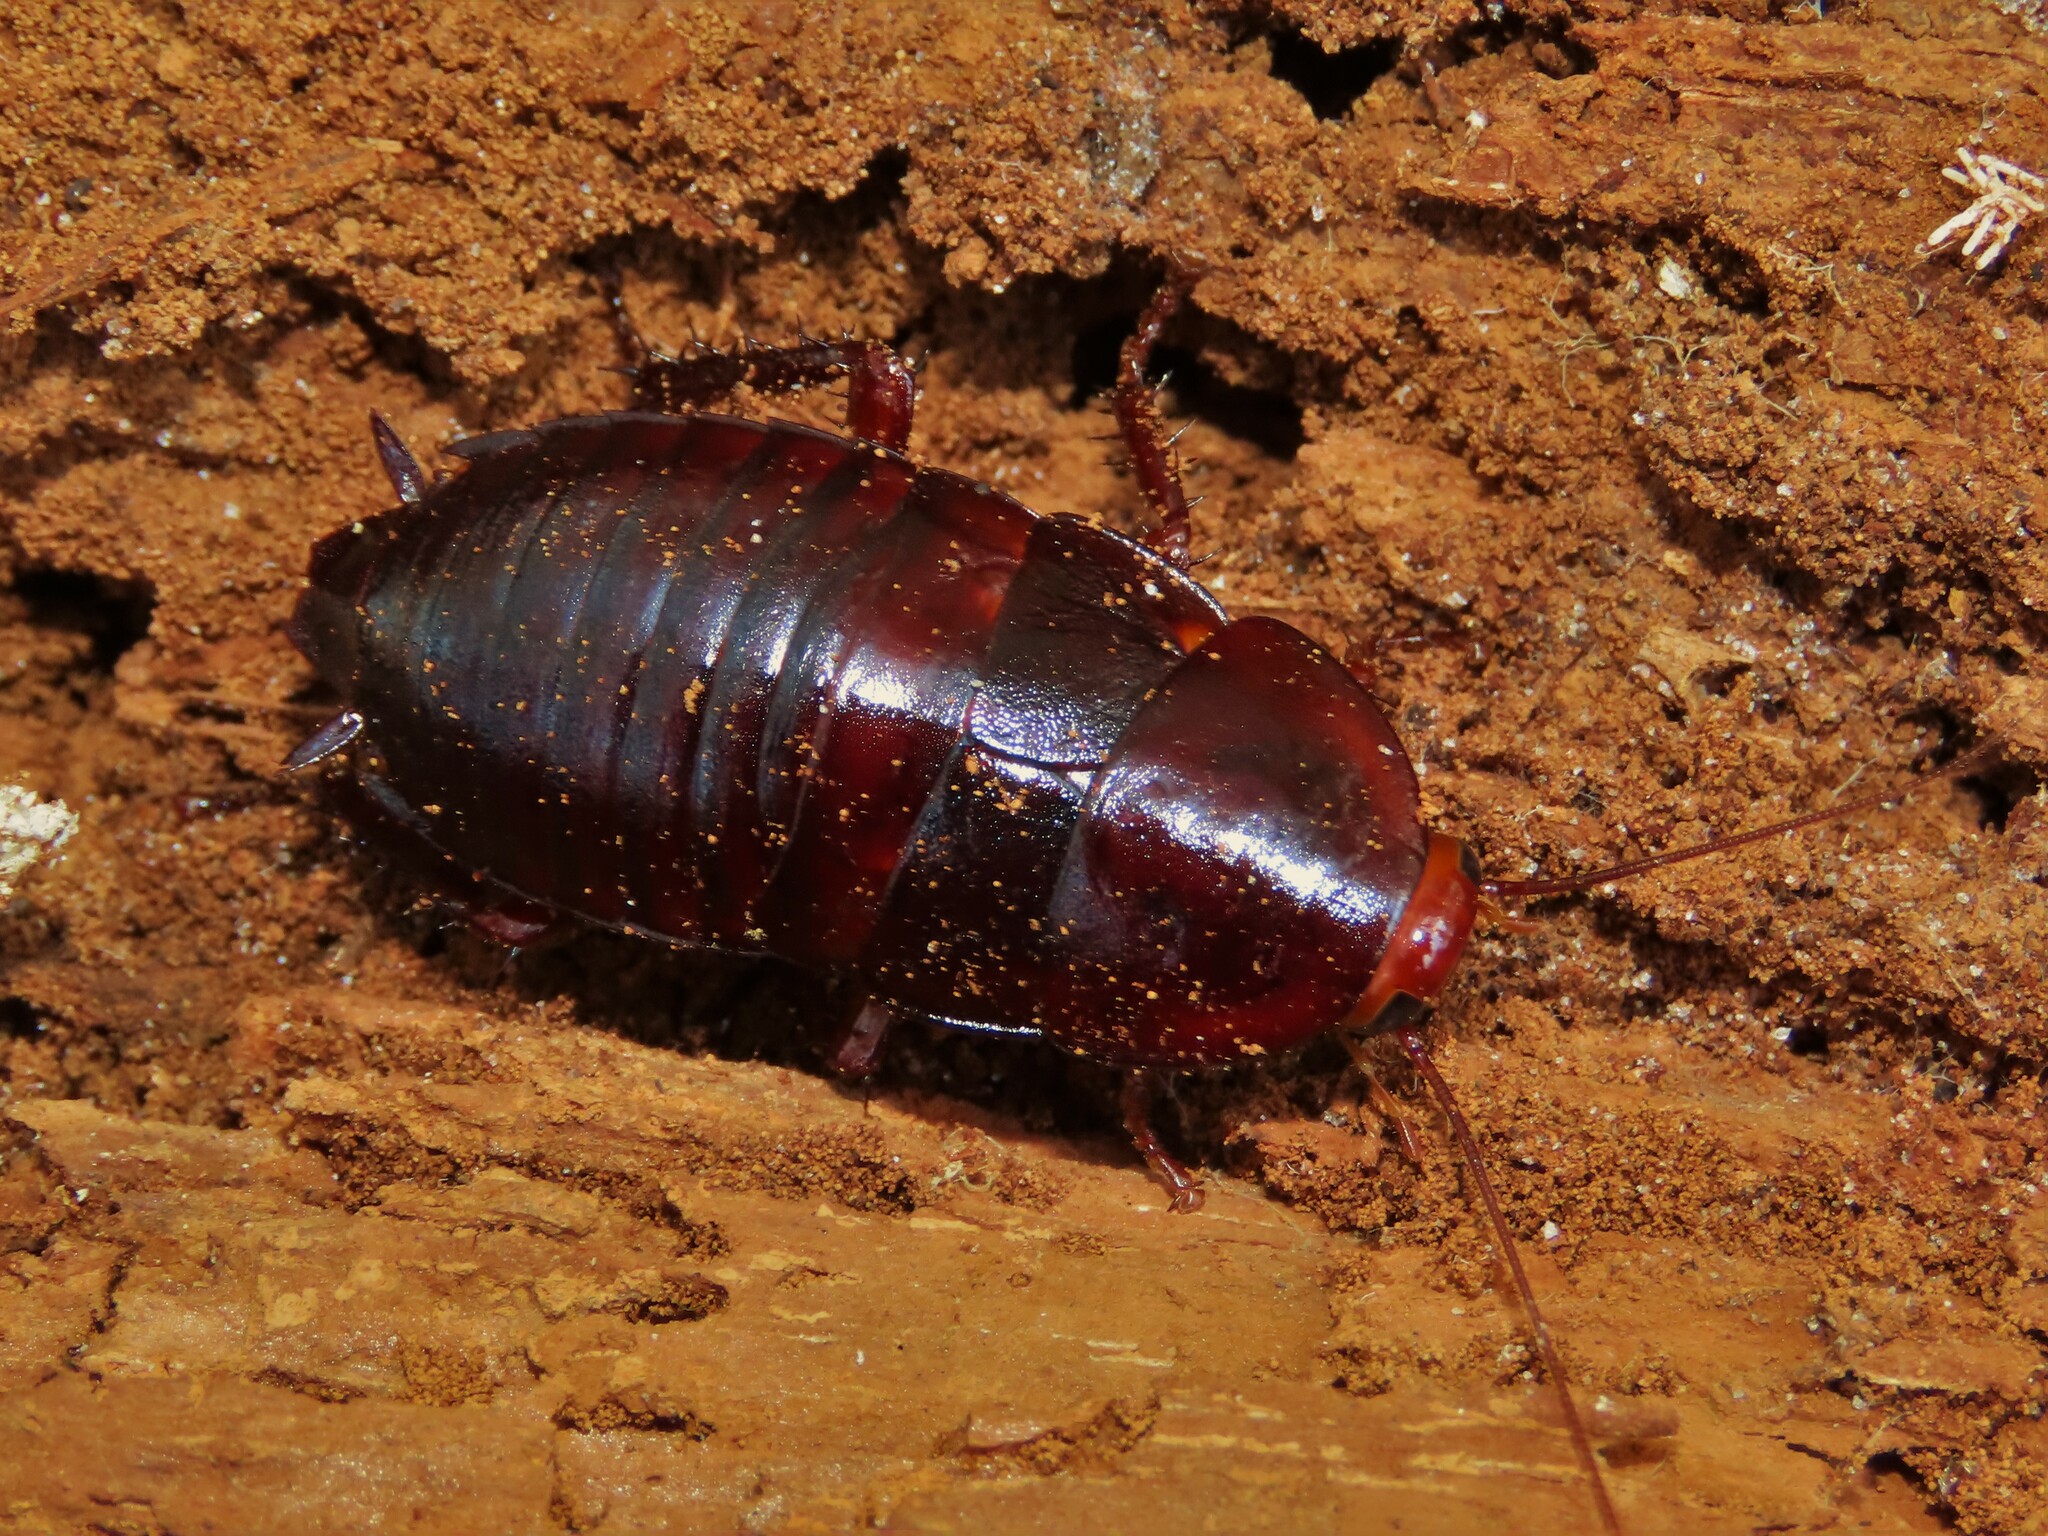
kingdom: Animalia
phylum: Arthropoda
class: Insecta
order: Blattodea
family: Blattidae
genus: Eurycotis
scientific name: Eurycotis floridana
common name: Florida cockroach
